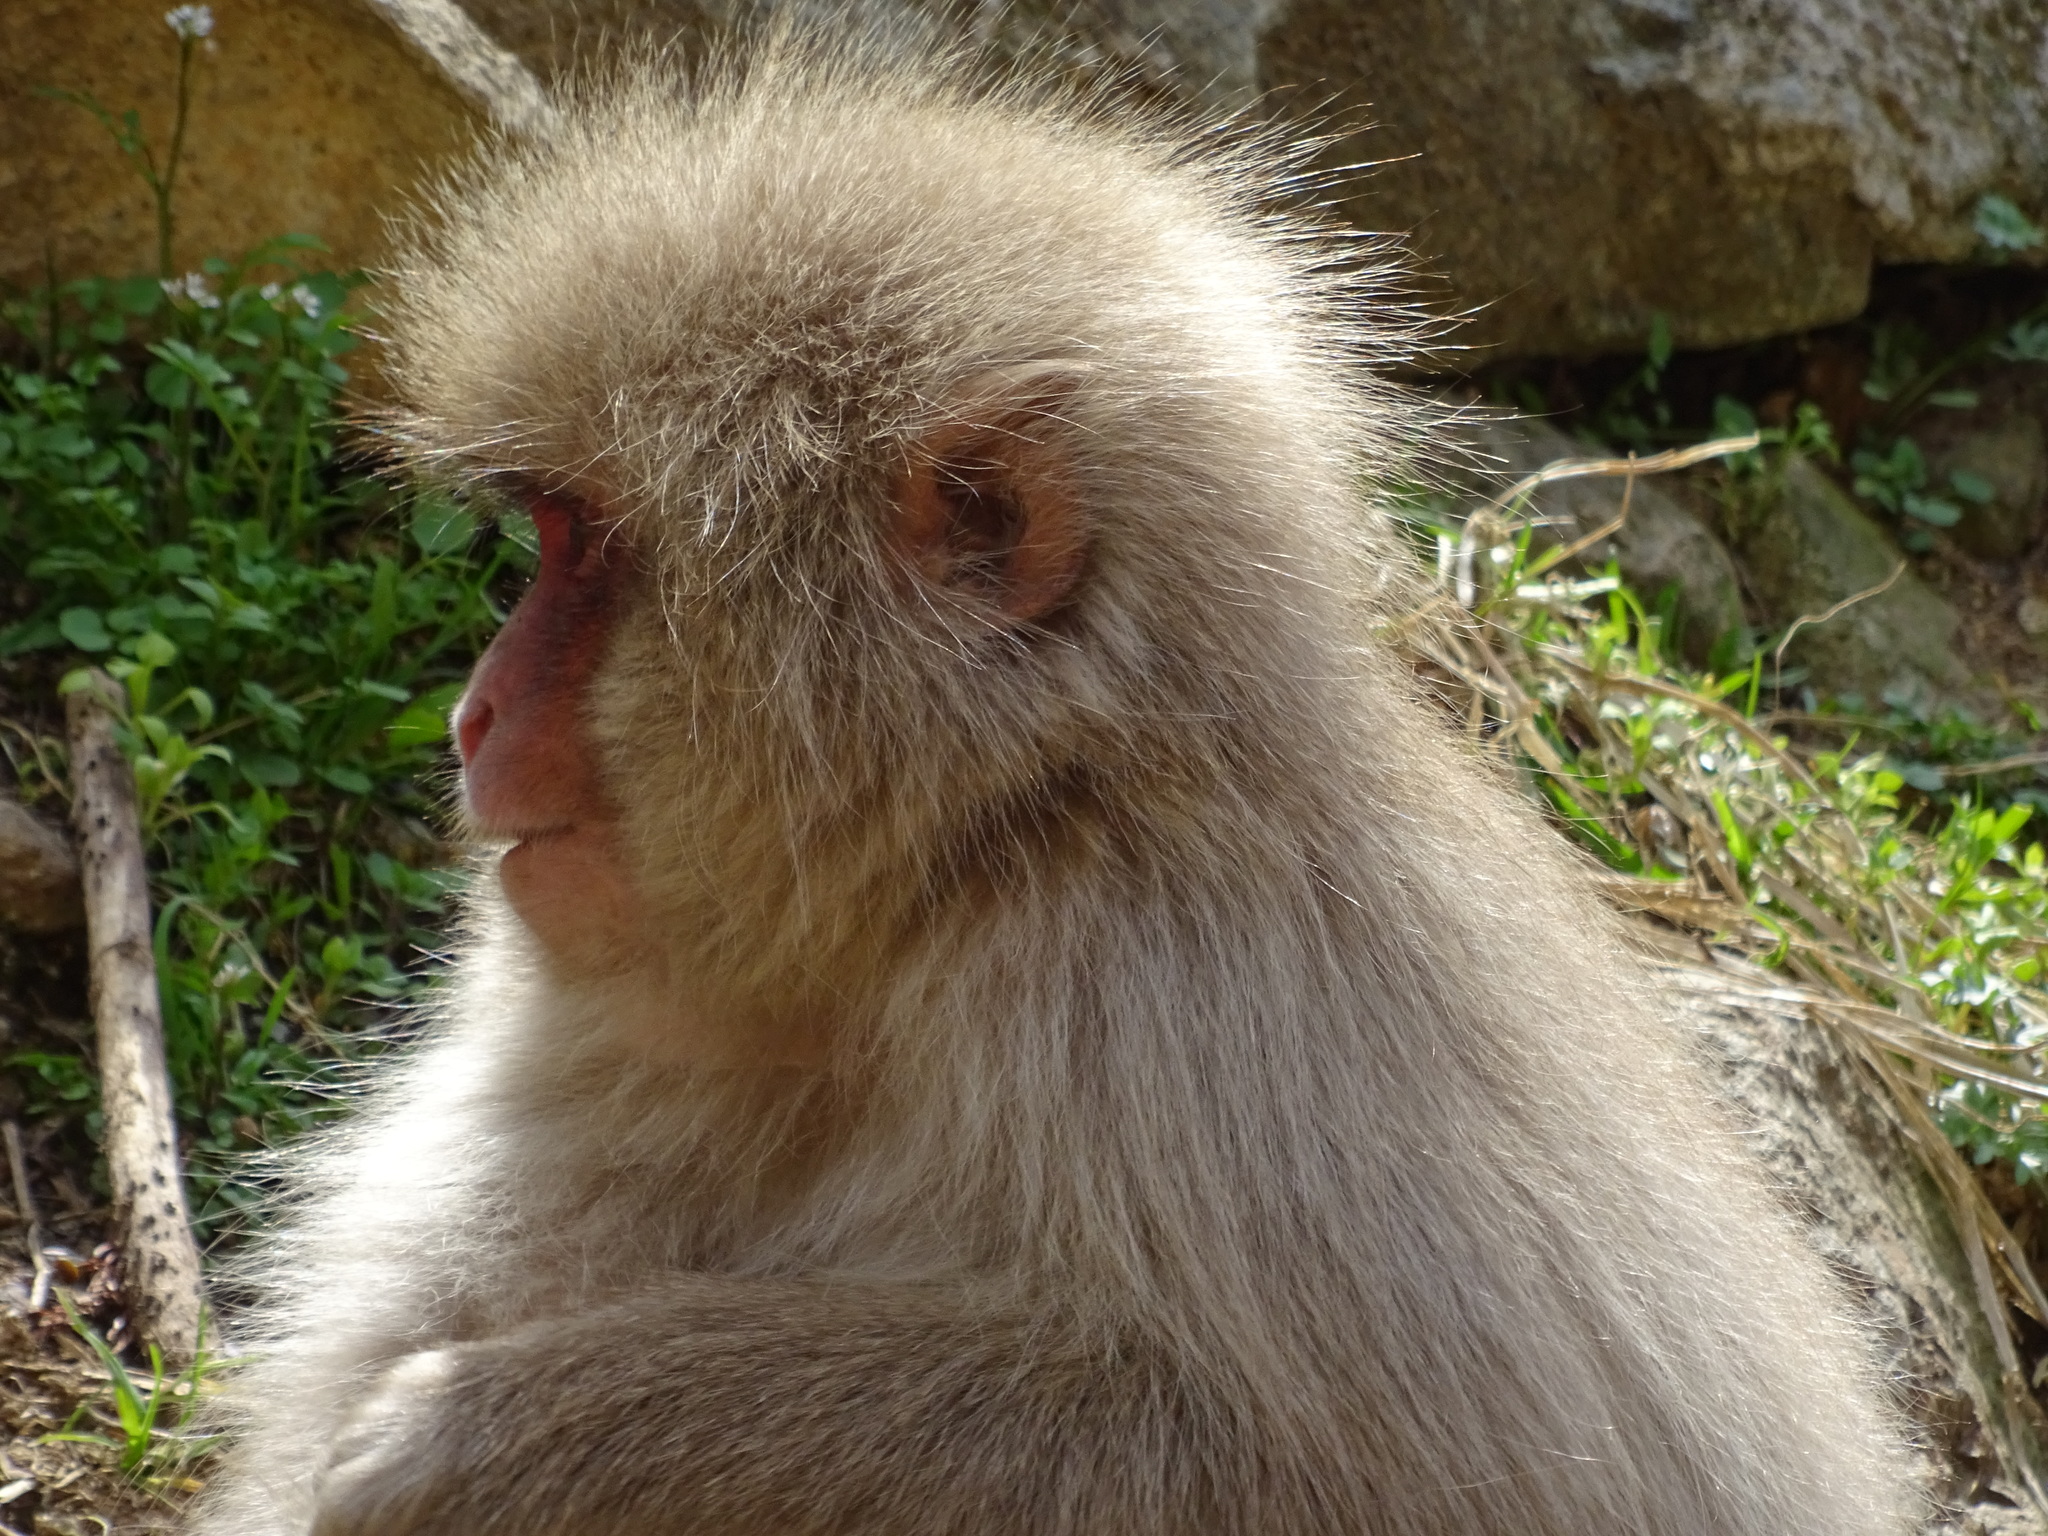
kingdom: Animalia
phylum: Chordata
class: Mammalia
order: Primates
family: Cercopithecidae
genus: Macaca
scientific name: Macaca fuscata
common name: Japanese macaque
